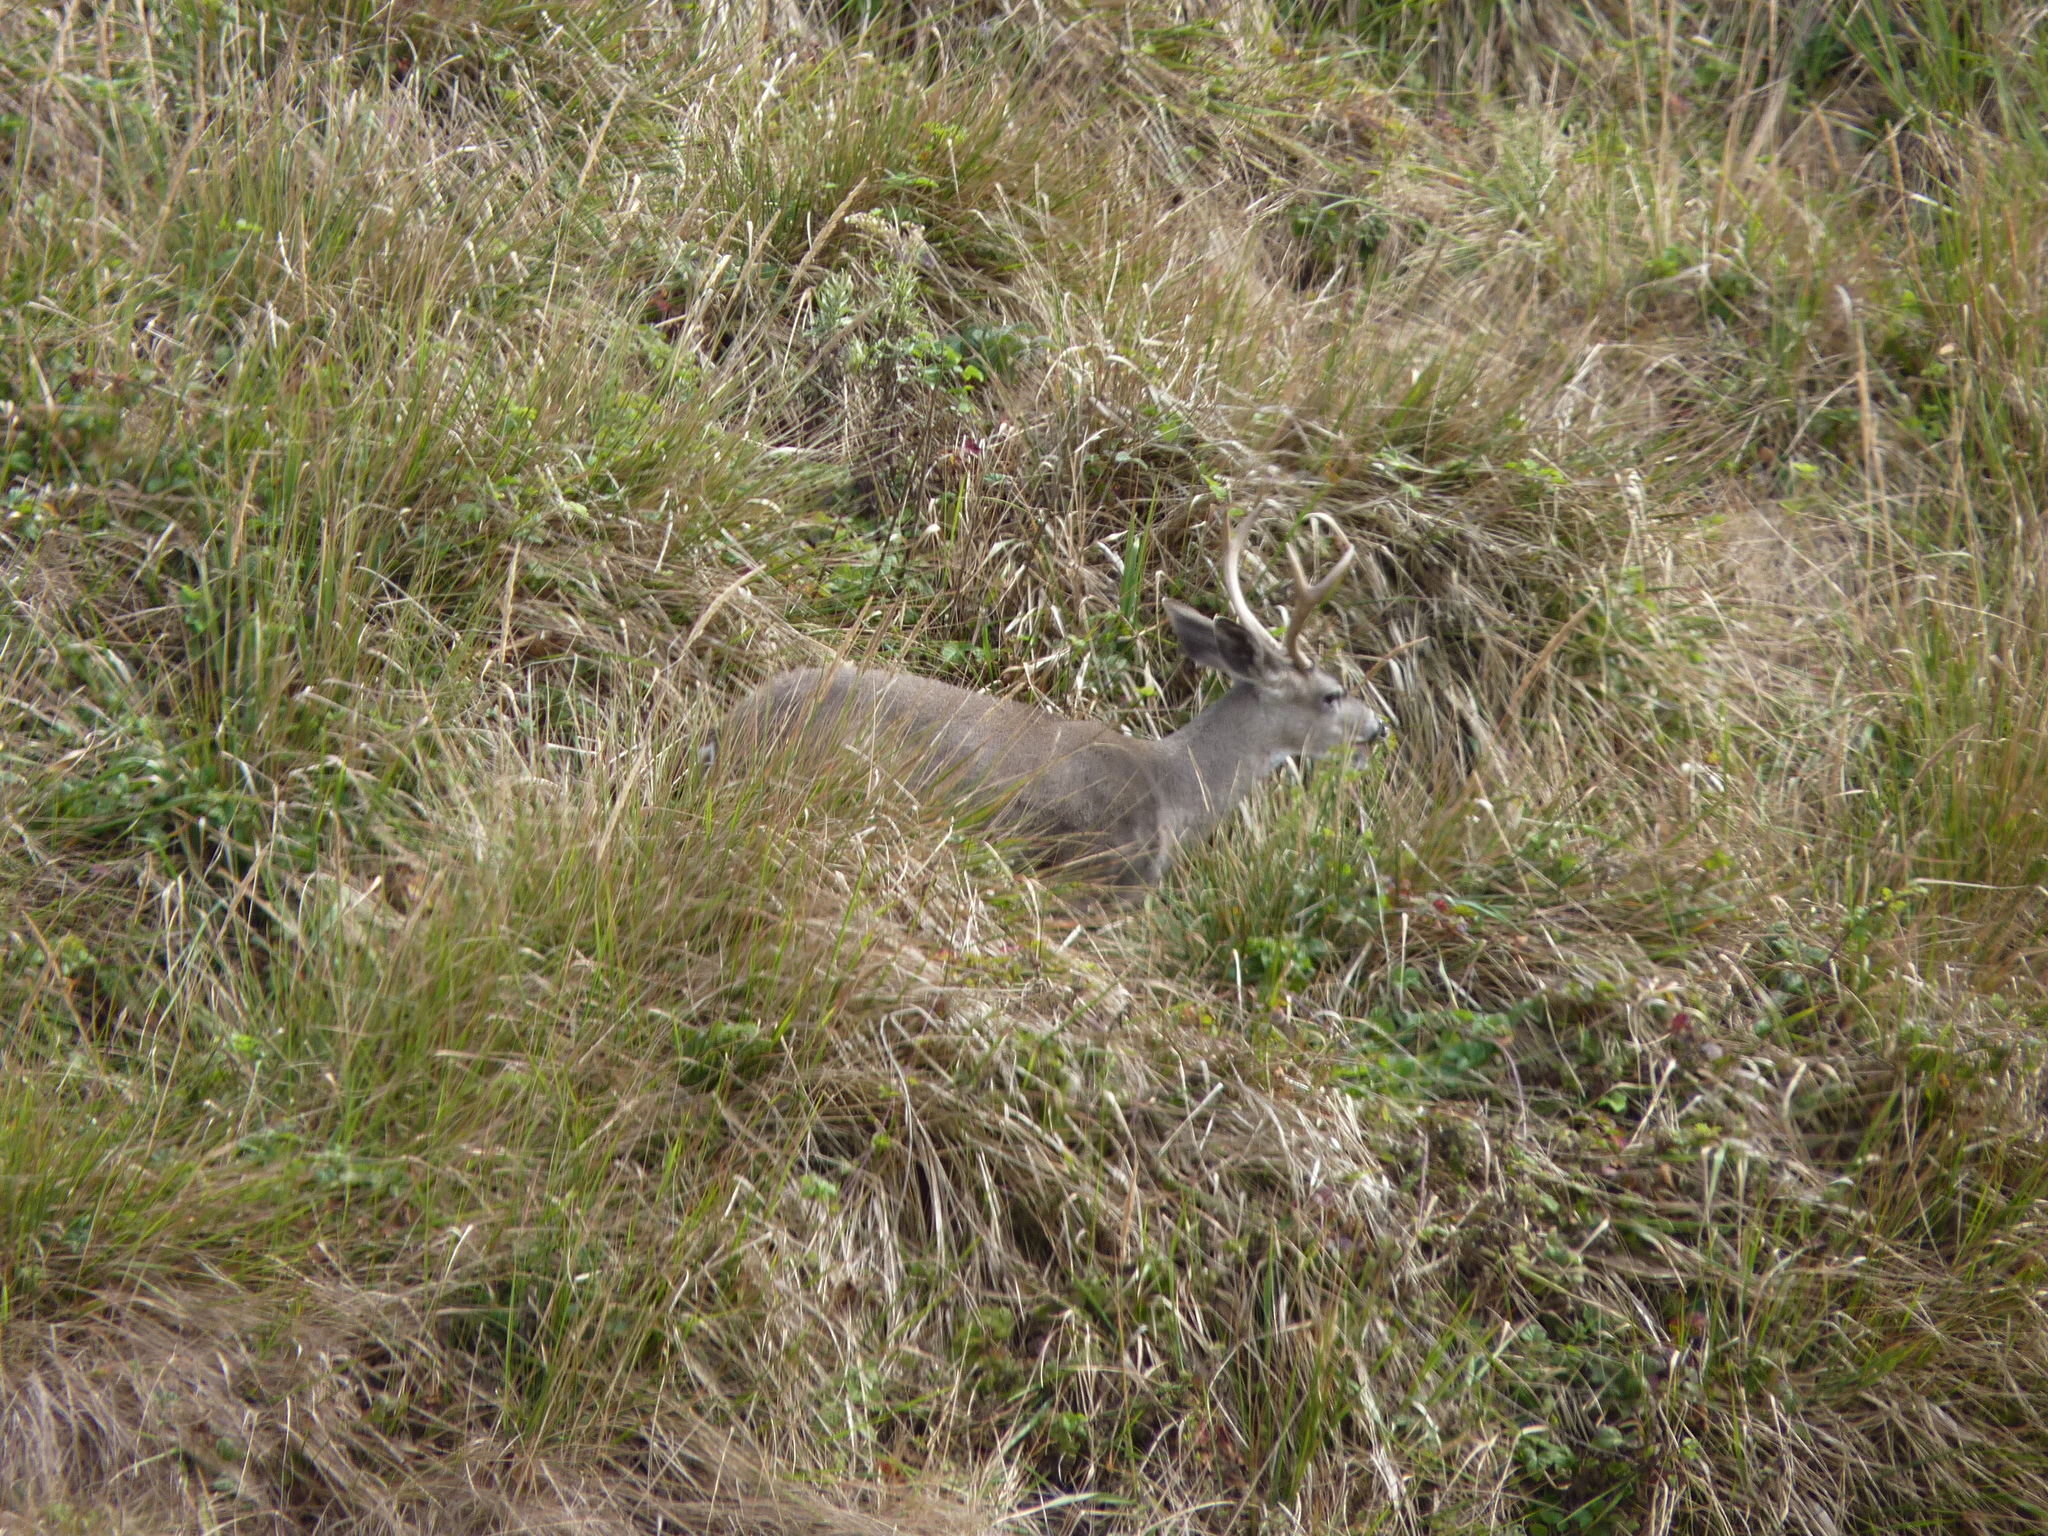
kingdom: Animalia
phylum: Chordata
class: Mammalia
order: Artiodactyla
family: Cervidae
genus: Odocoileus
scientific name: Odocoileus hemionus
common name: Mule deer
